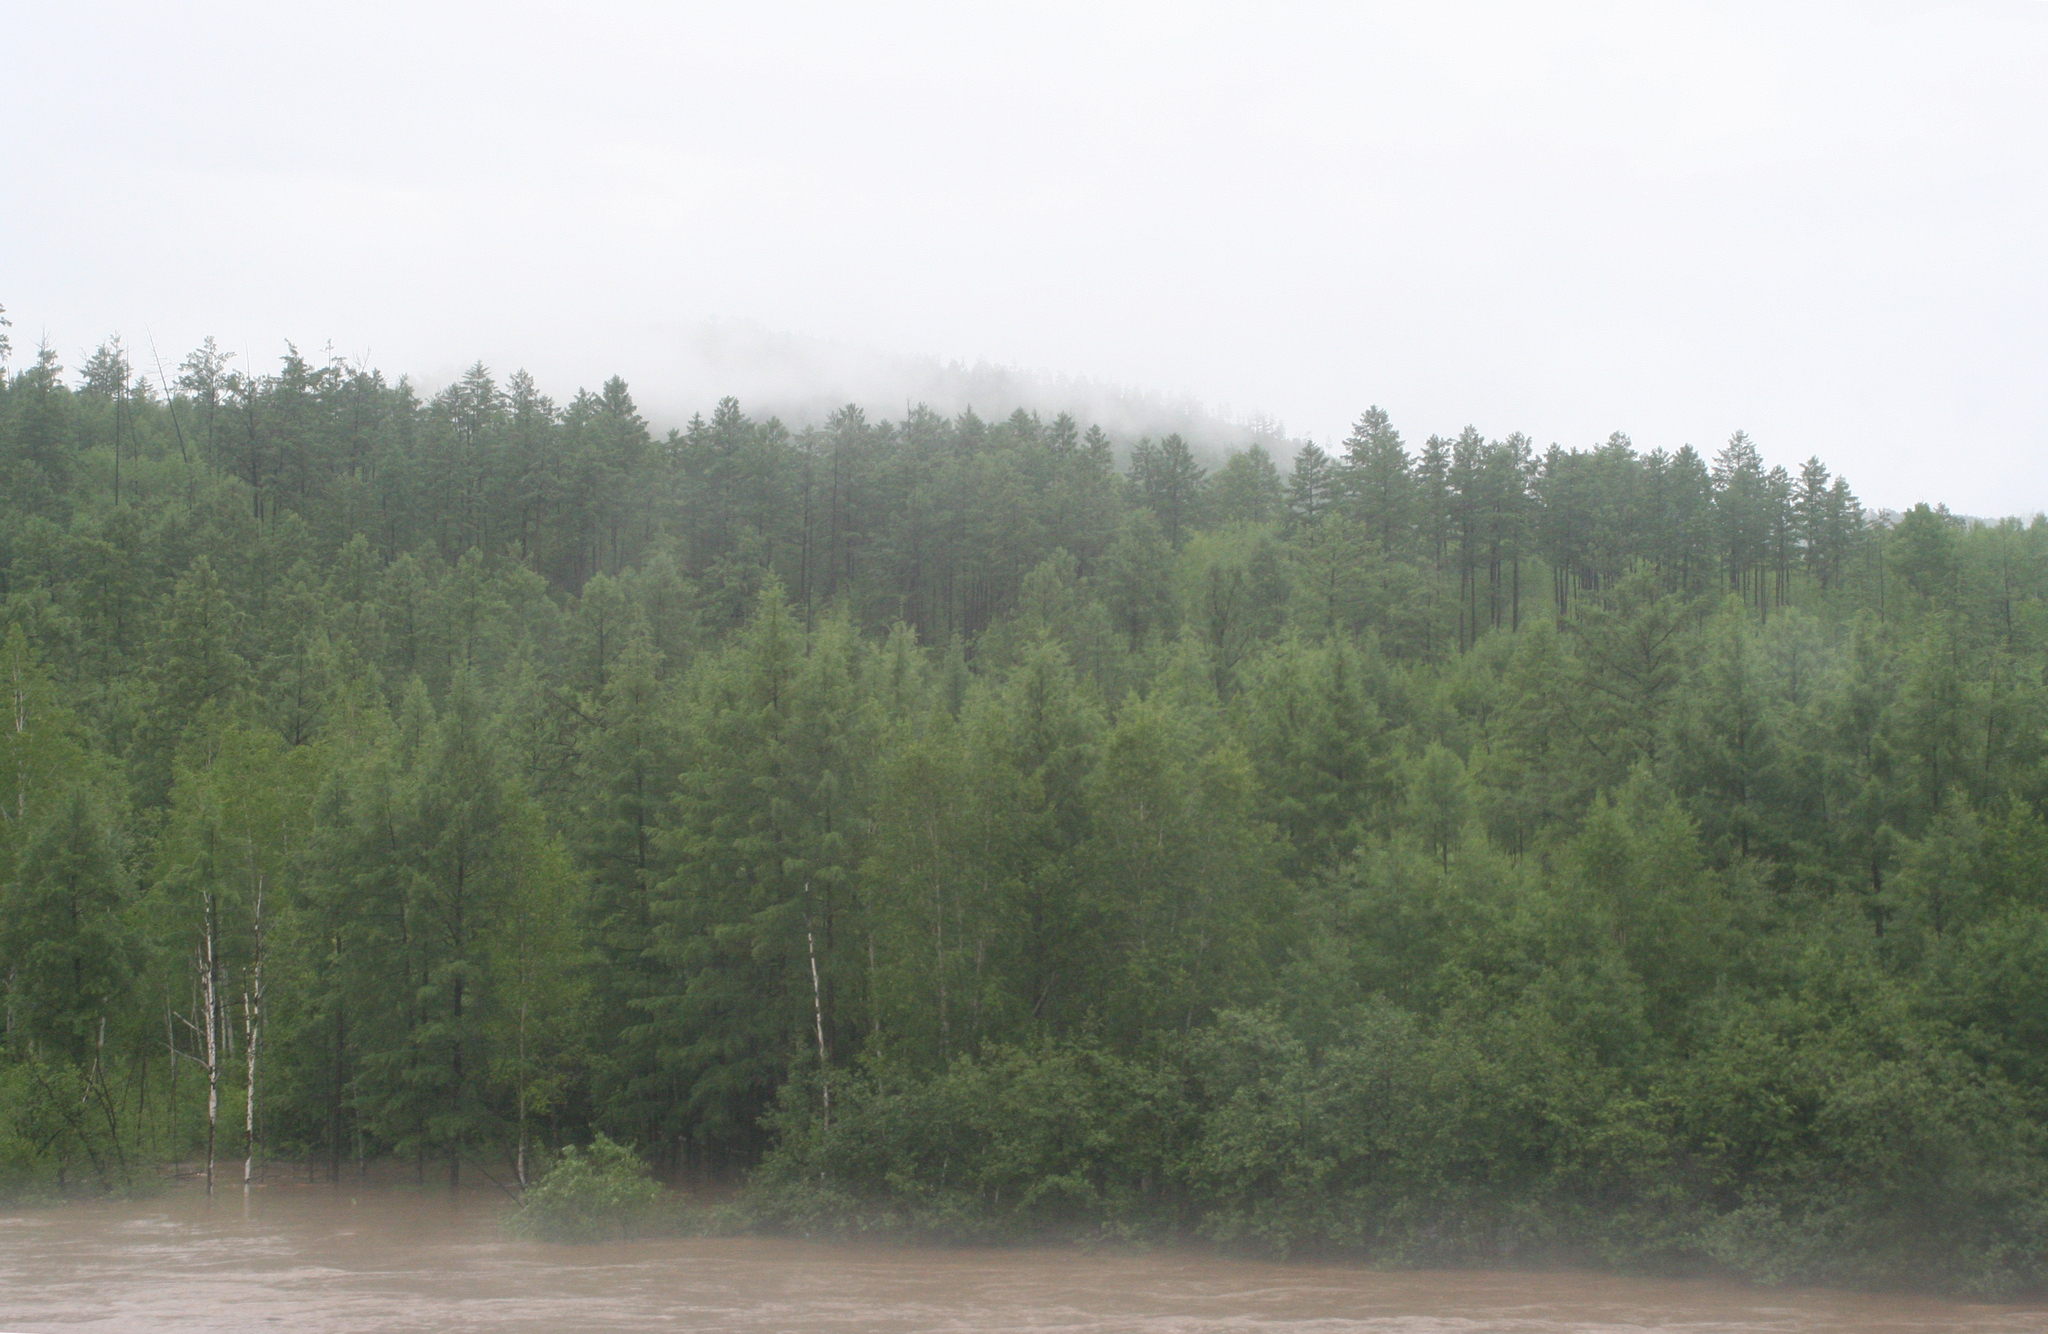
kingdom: Plantae
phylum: Tracheophyta
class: Pinopsida
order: Pinales
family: Pinaceae
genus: Larix
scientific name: Larix gmelinii
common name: Dahurian larch
